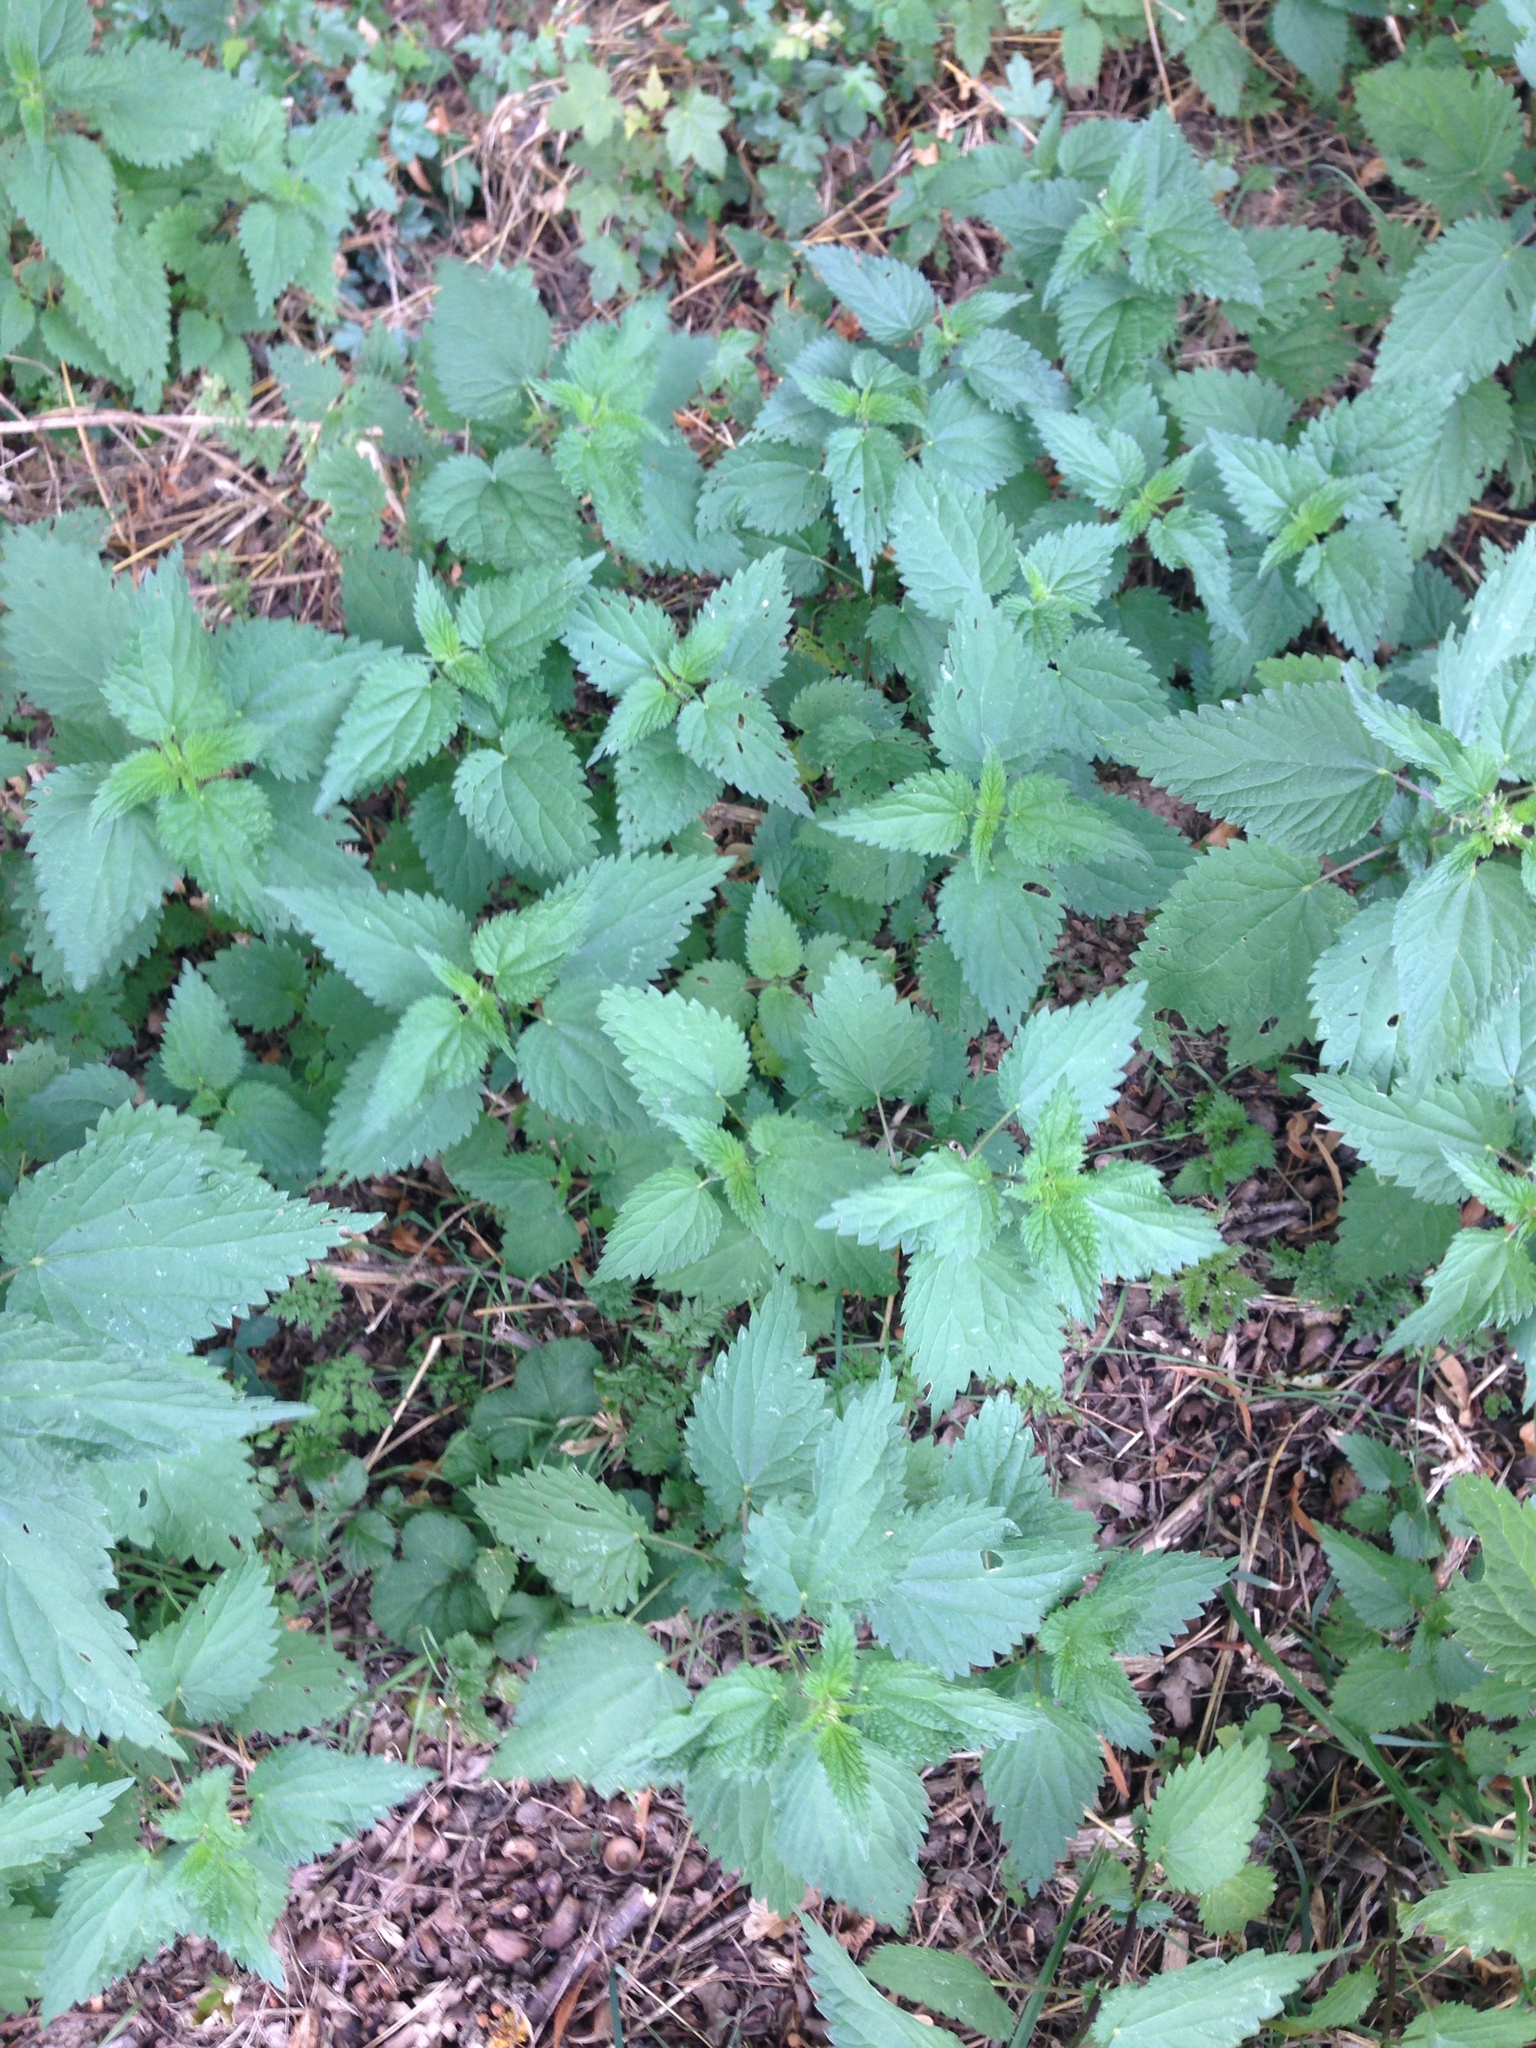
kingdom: Plantae
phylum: Tracheophyta
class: Magnoliopsida
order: Rosales
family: Urticaceae
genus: Urtica
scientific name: Urtica dioica
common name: Common nettle
